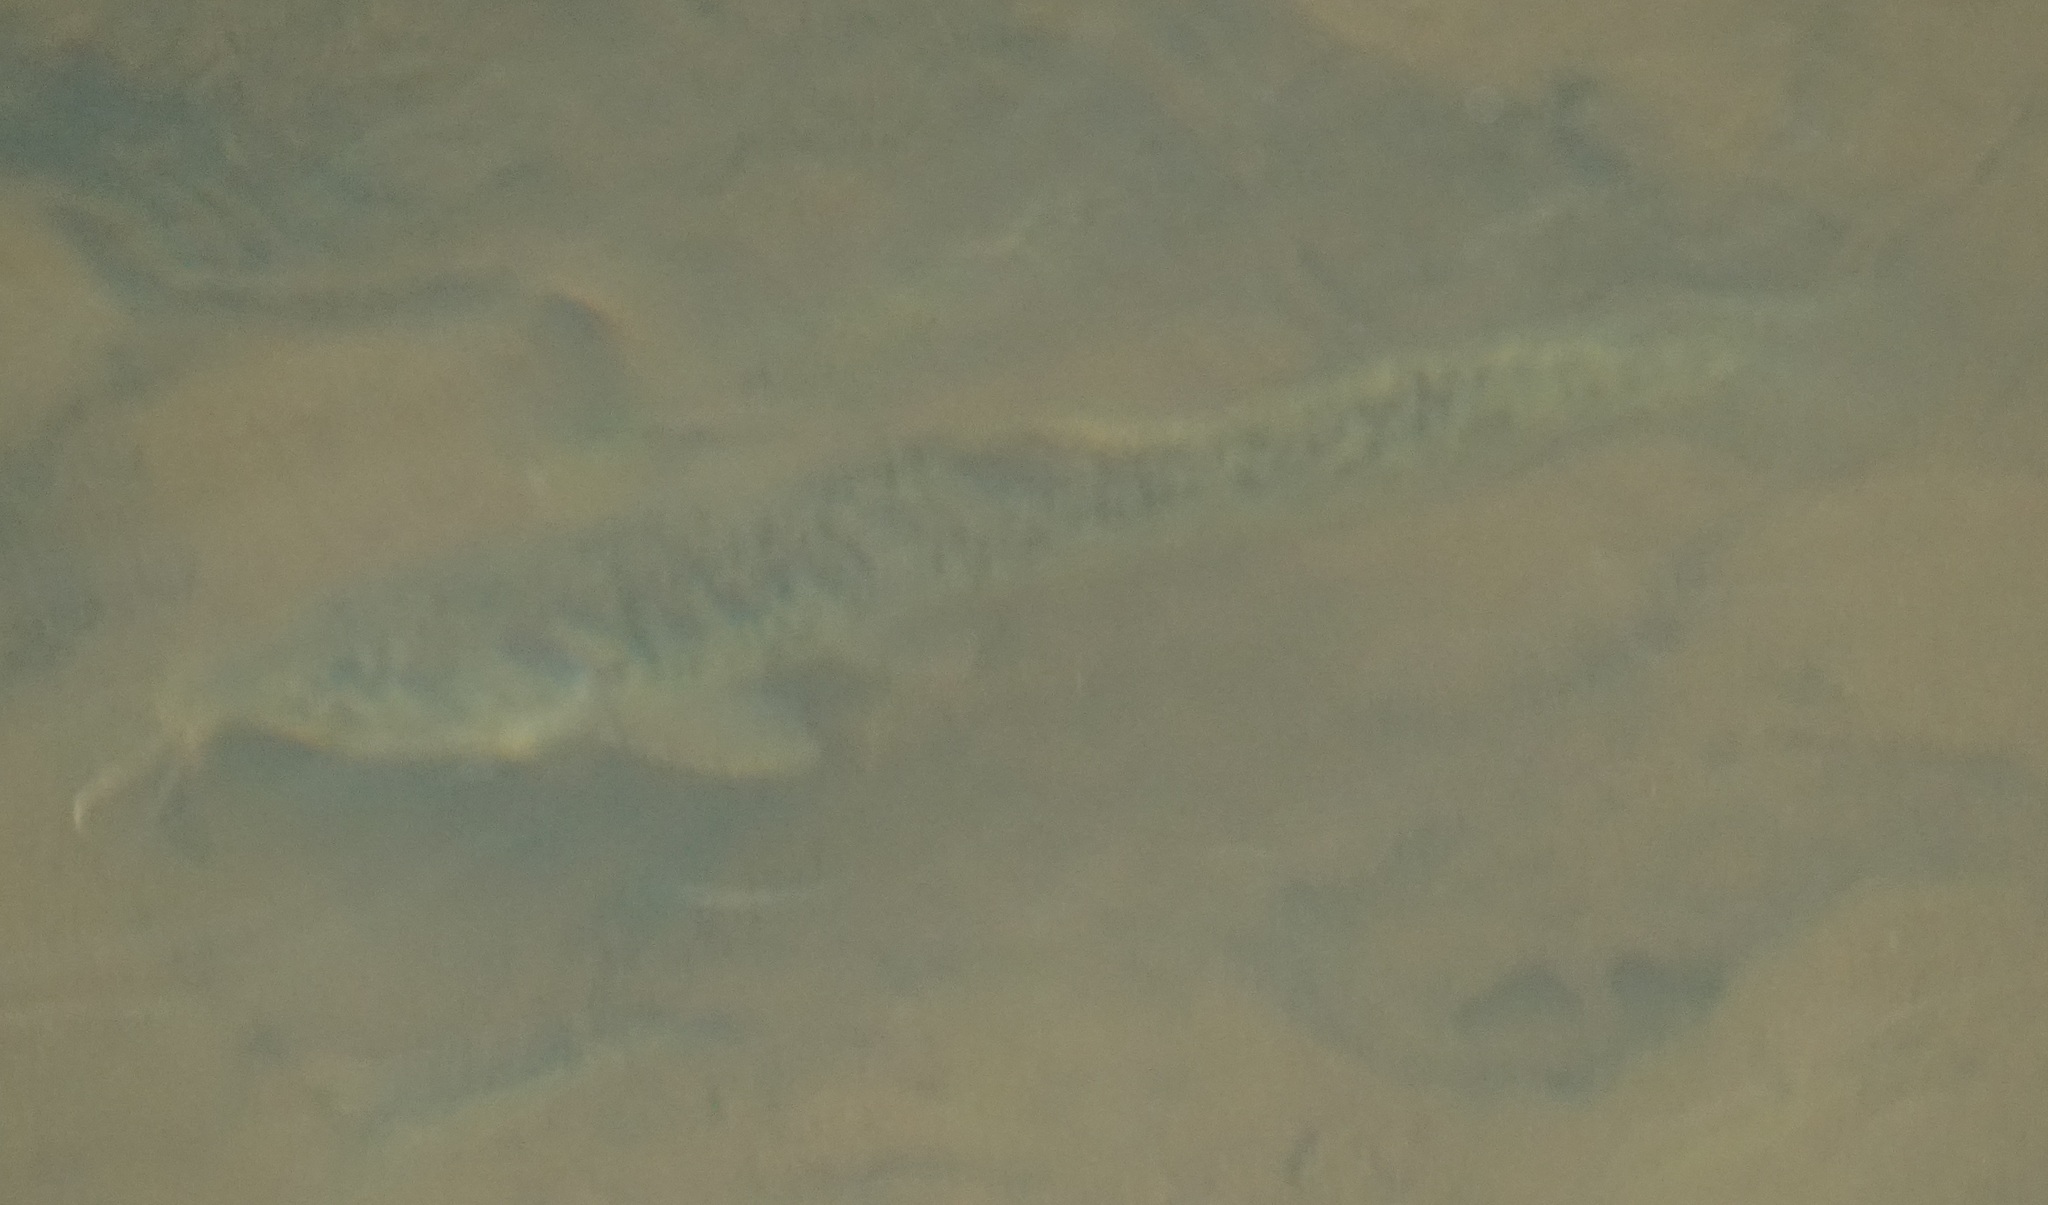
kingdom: Animalia
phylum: Chordata
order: Siluriformes
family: Plotosidae
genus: Tandanus
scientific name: Tandanus tropicanus
